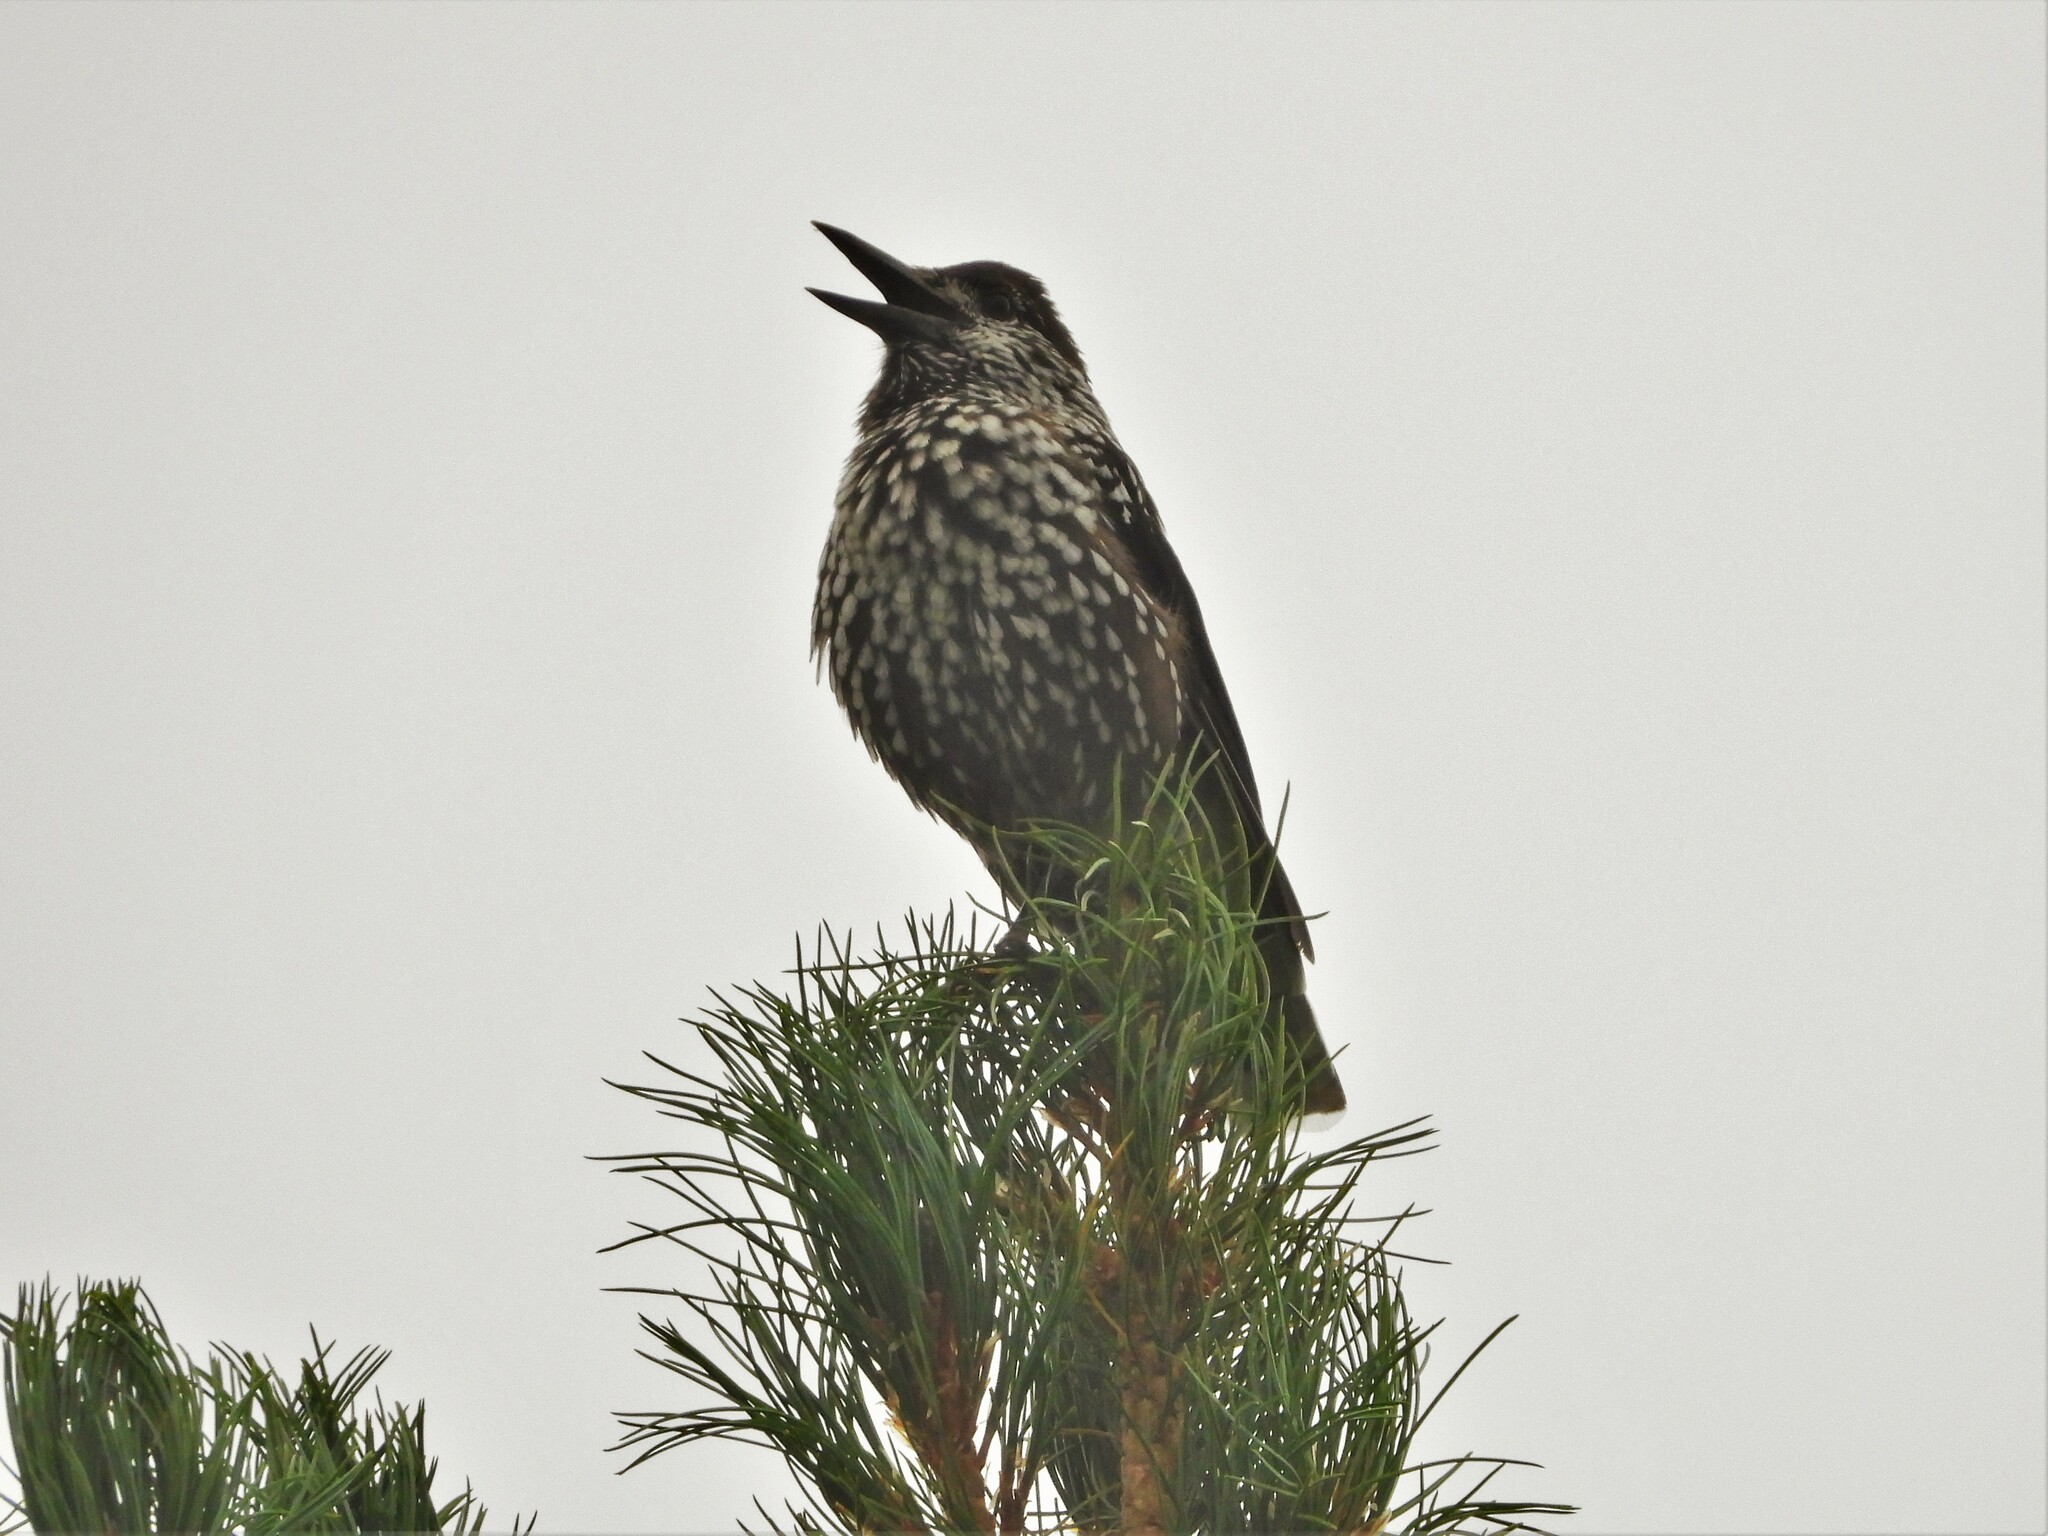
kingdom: Animalia
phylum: Chordata
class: Aves
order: Passeriformes
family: Corvidae
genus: Nucifraga
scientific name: Nucifraga caryocatactes
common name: Spotted nutcracker
